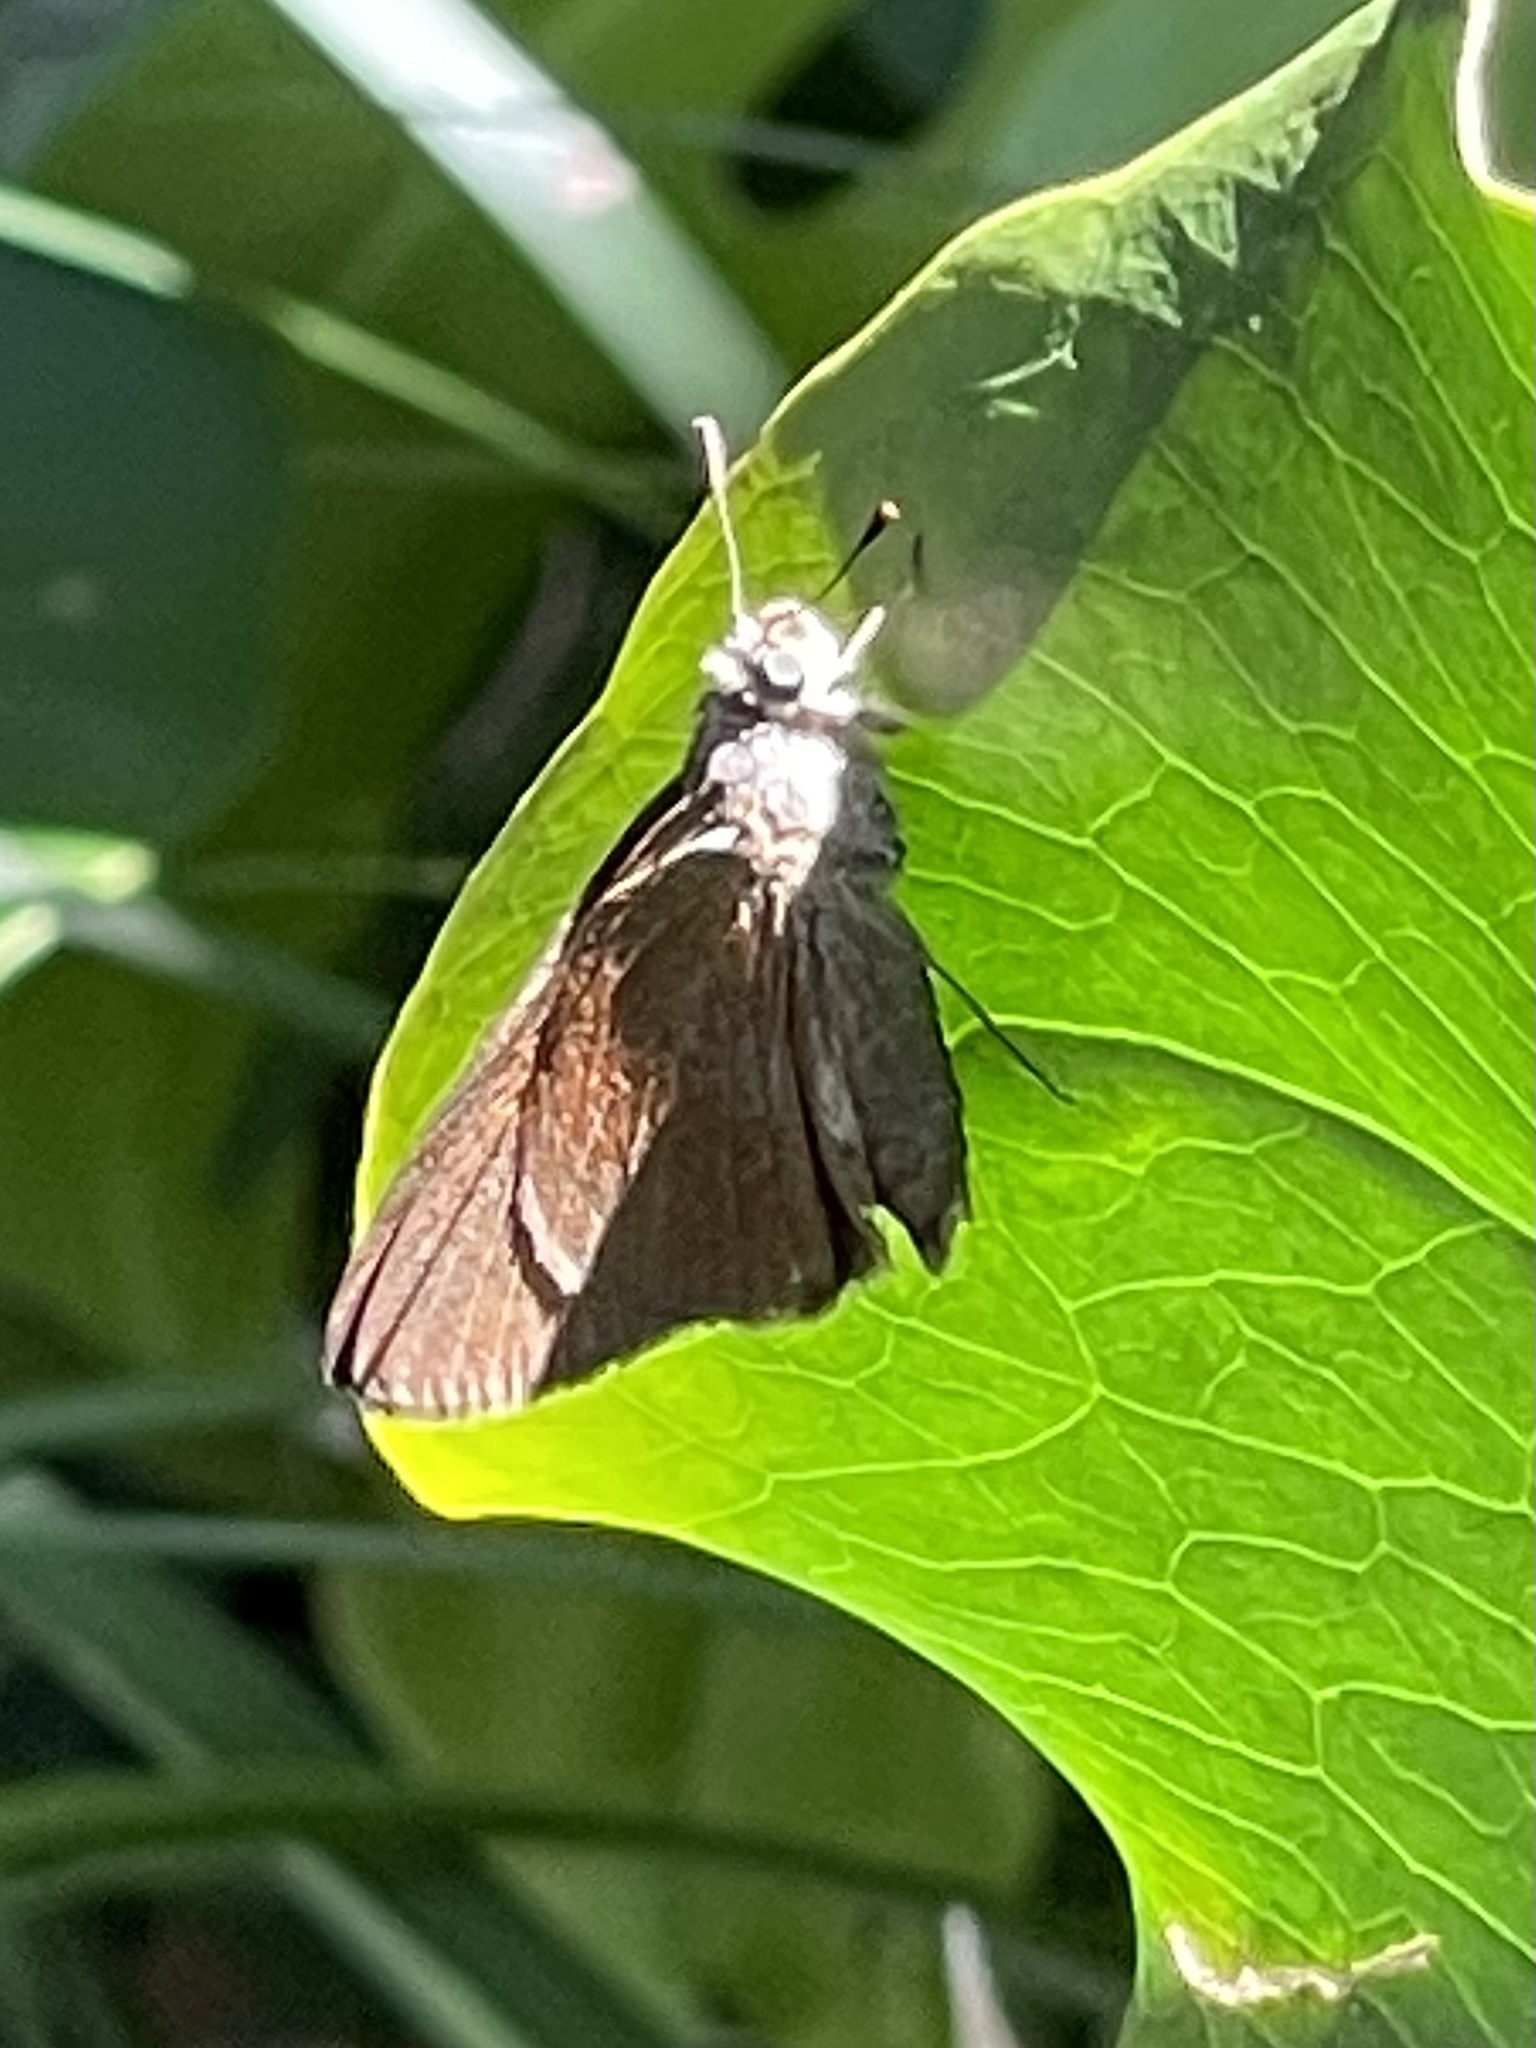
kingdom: Animalia
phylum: Arthropoda
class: Insecta
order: Lepidoptera
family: Hesperiidae
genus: Asbolis
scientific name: Asbolis capucinus
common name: Monk skipper
